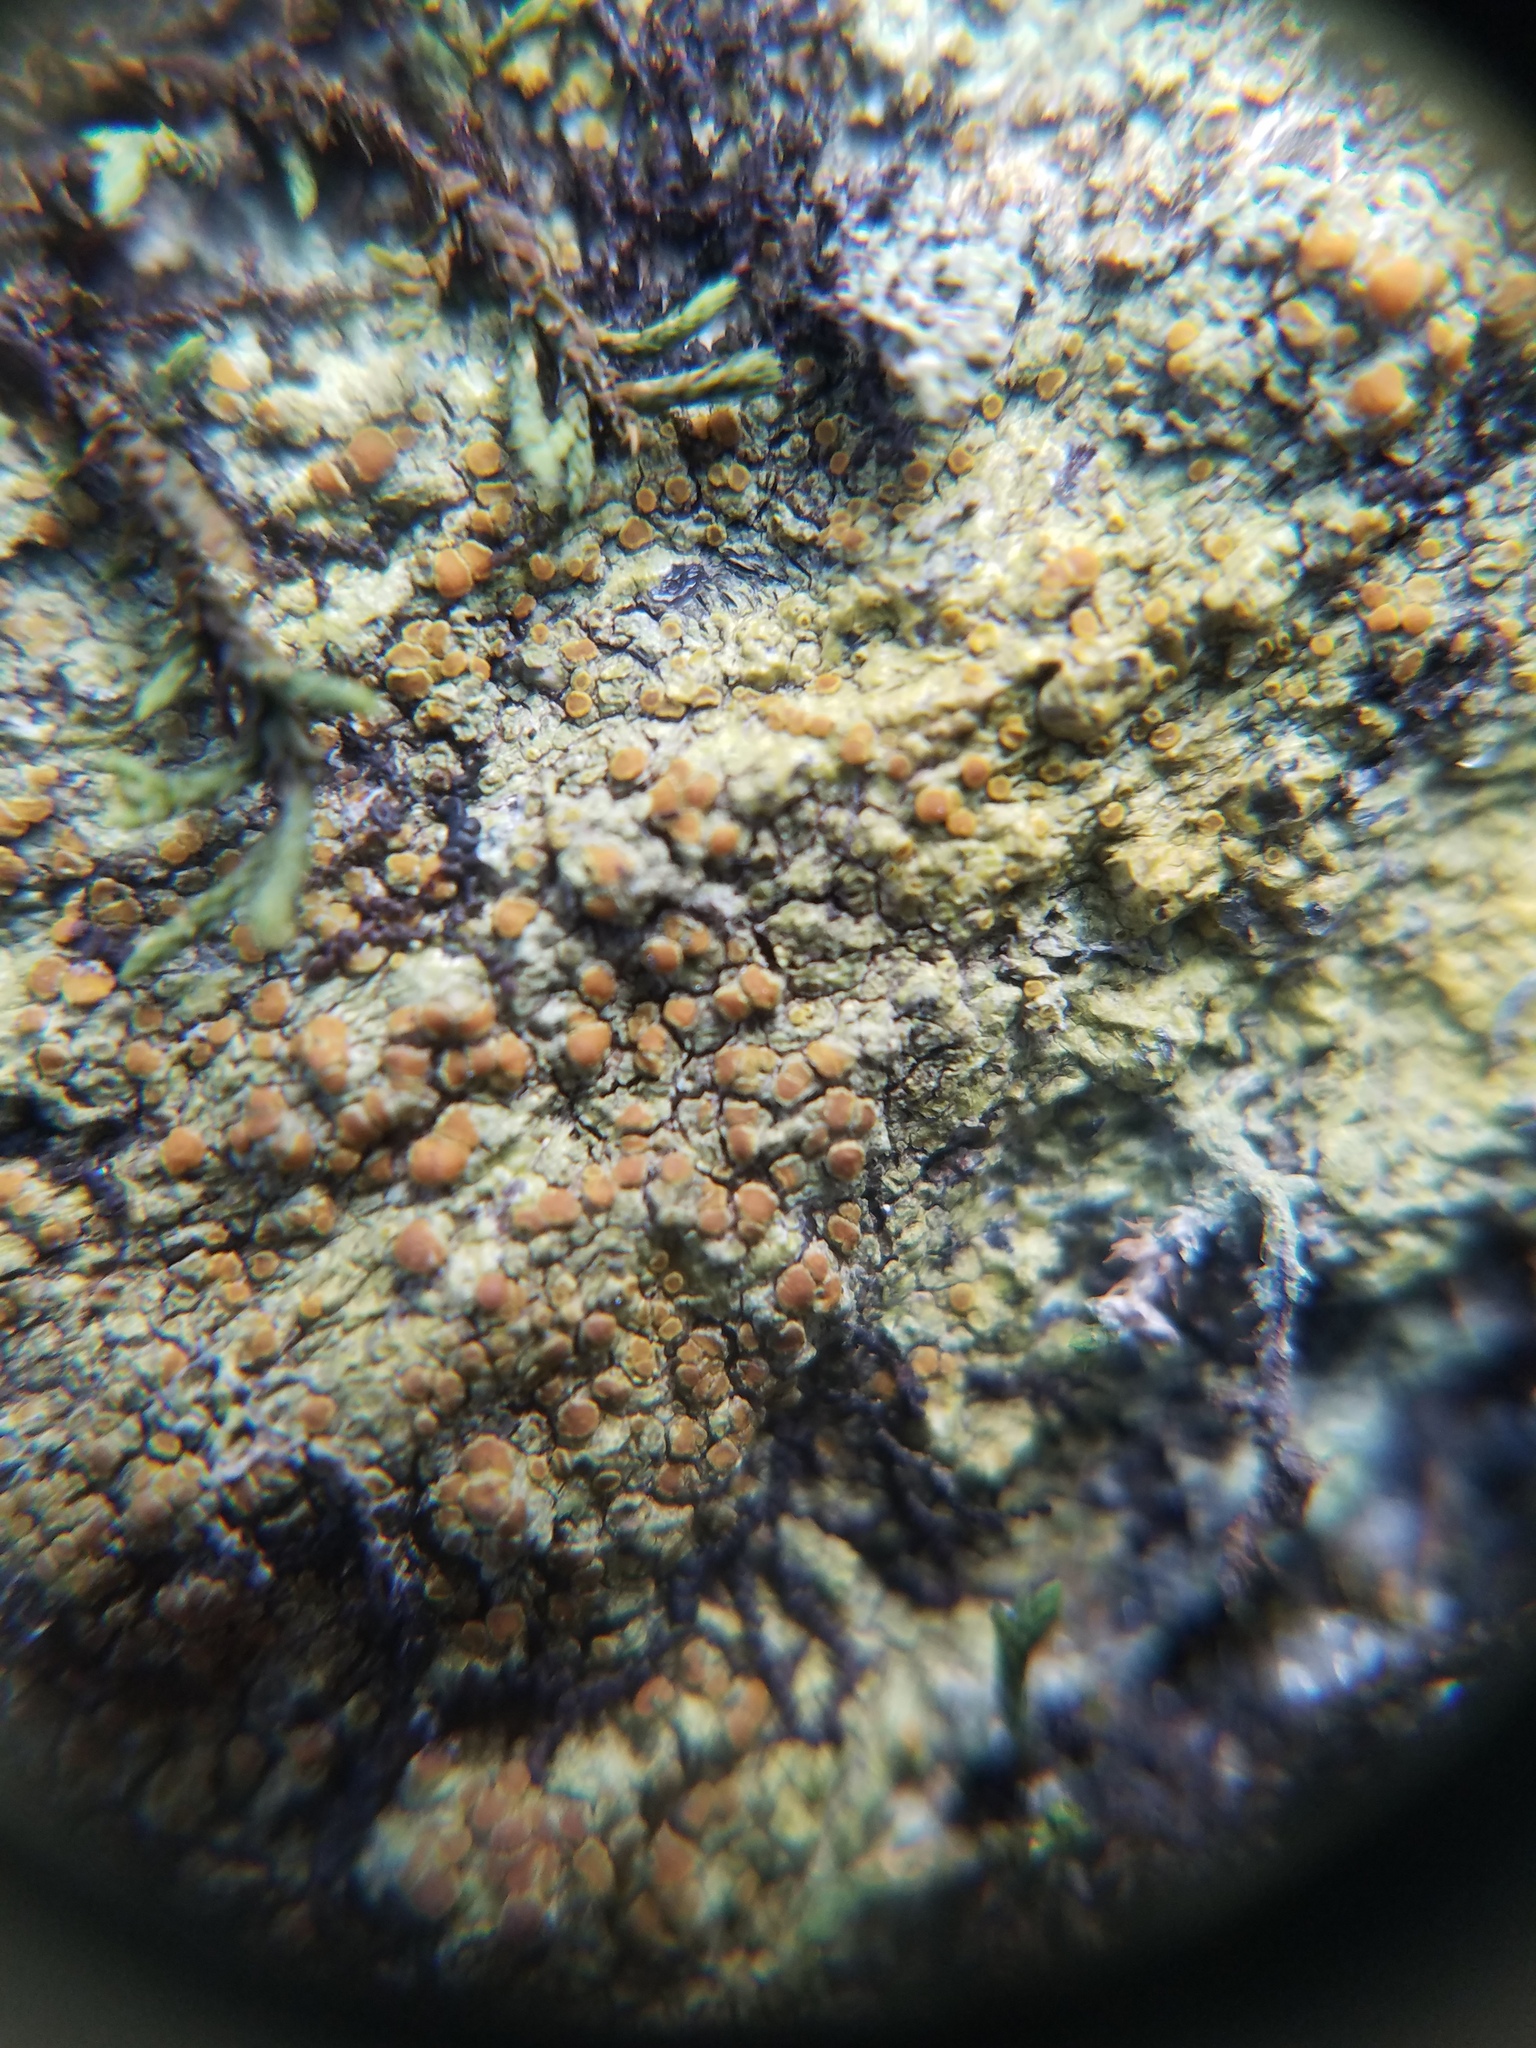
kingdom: Fungi
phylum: Ascomycota
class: Lecanoromycetes
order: Teloschistales
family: Teloschistaceae
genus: Gyalolechia
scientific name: Gyalolechia flavovirescens
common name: Sulphur firedot
